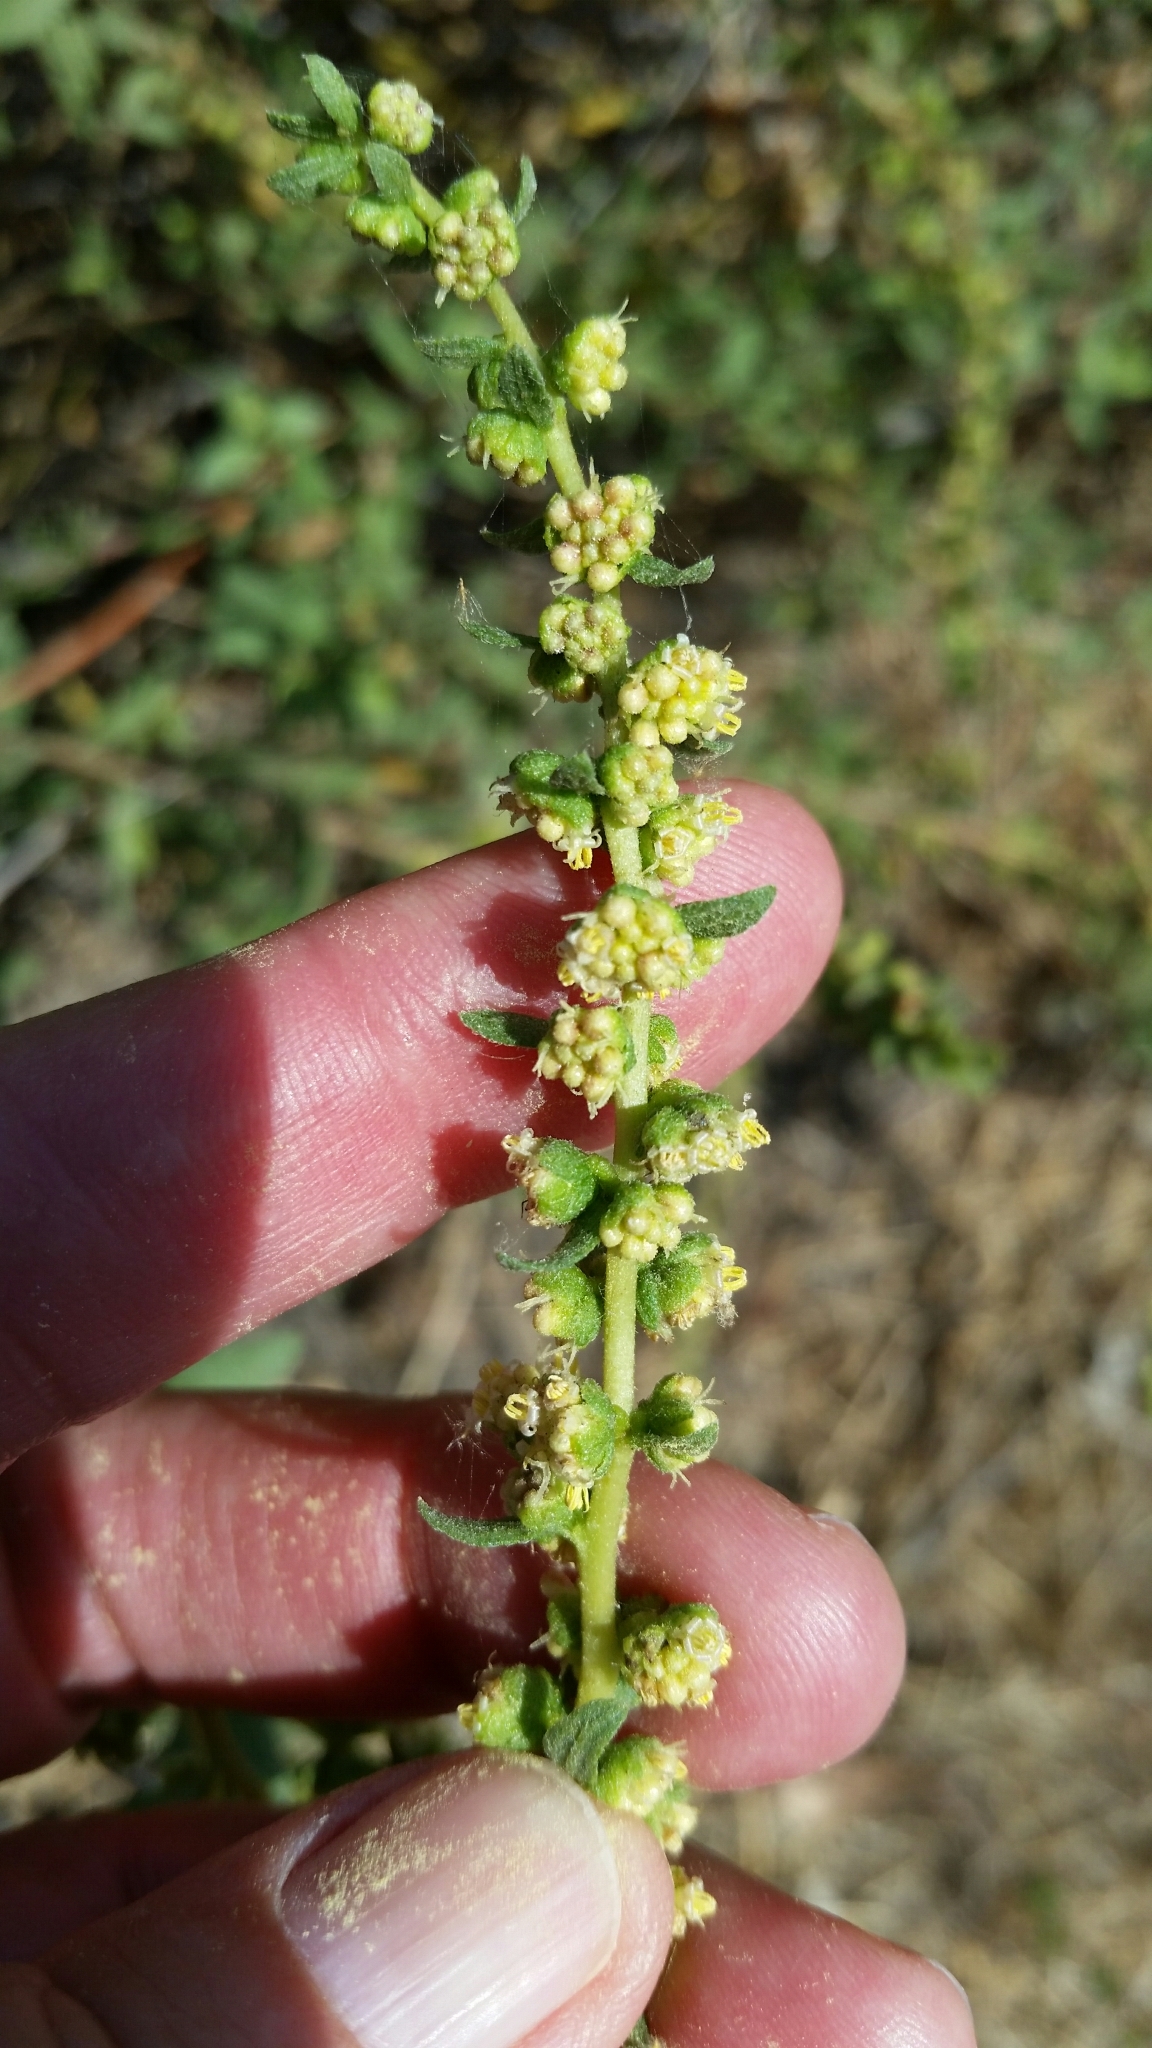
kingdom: Plantae
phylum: Tracheophyta
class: Magnoliopsida
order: Asterales
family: Asteraceae
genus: Iva
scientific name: Iva hayesiana
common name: San diego marsh-elder
